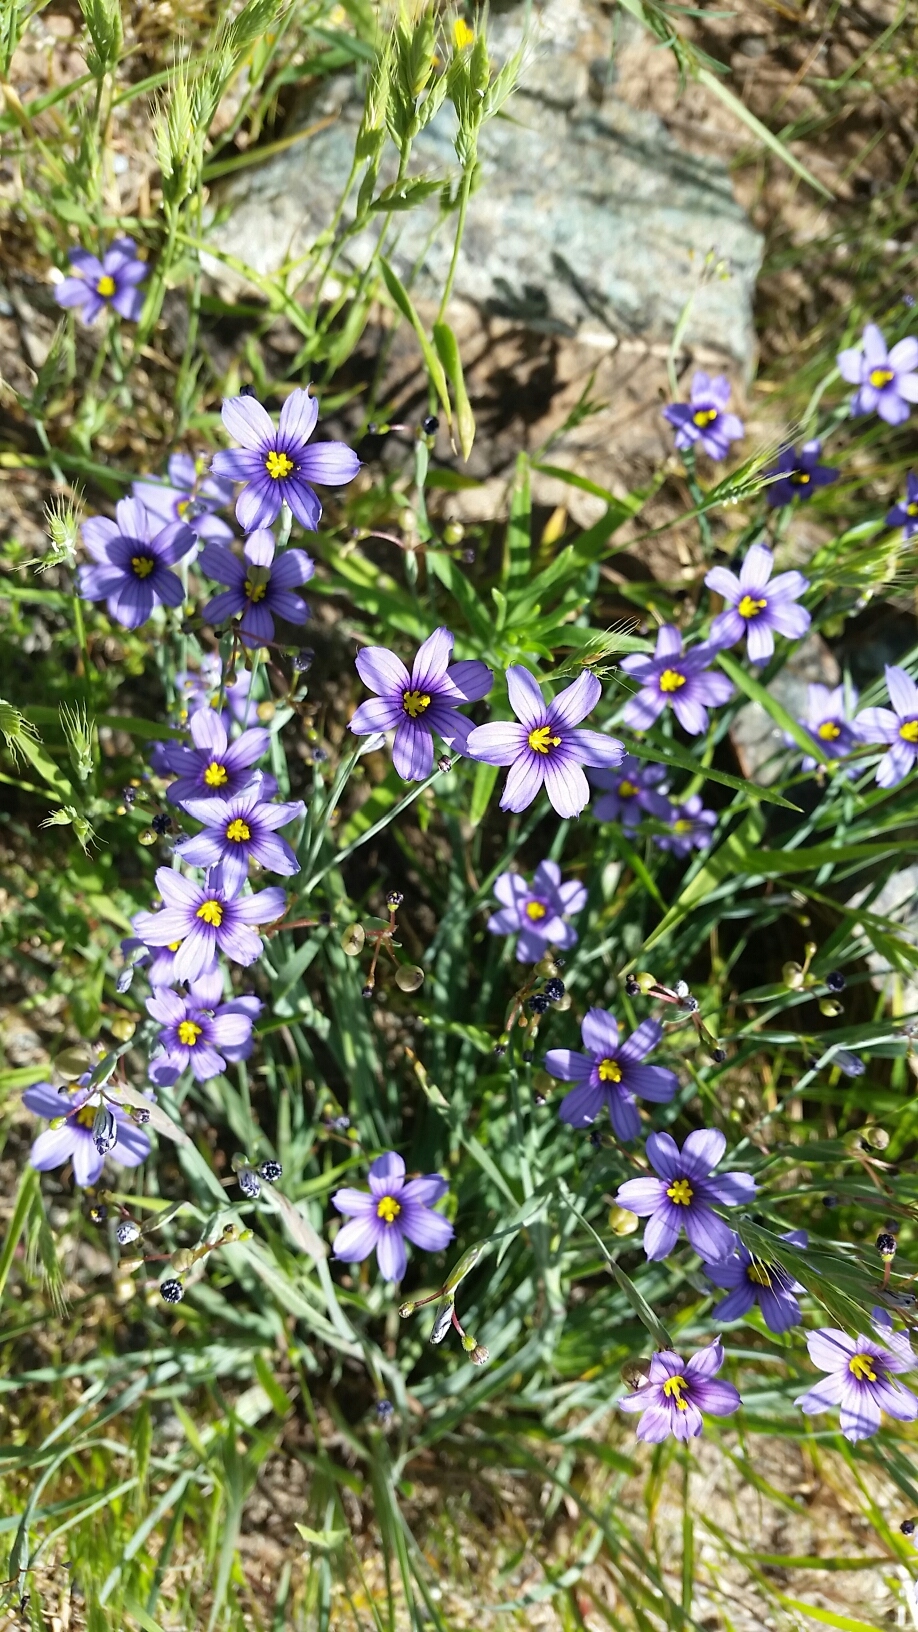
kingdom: Plantae
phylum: Tracheophyta
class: Liliopsida
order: Asparagales
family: Iridaceae
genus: Sisyrinchium
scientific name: Sisyrinchium bellum
